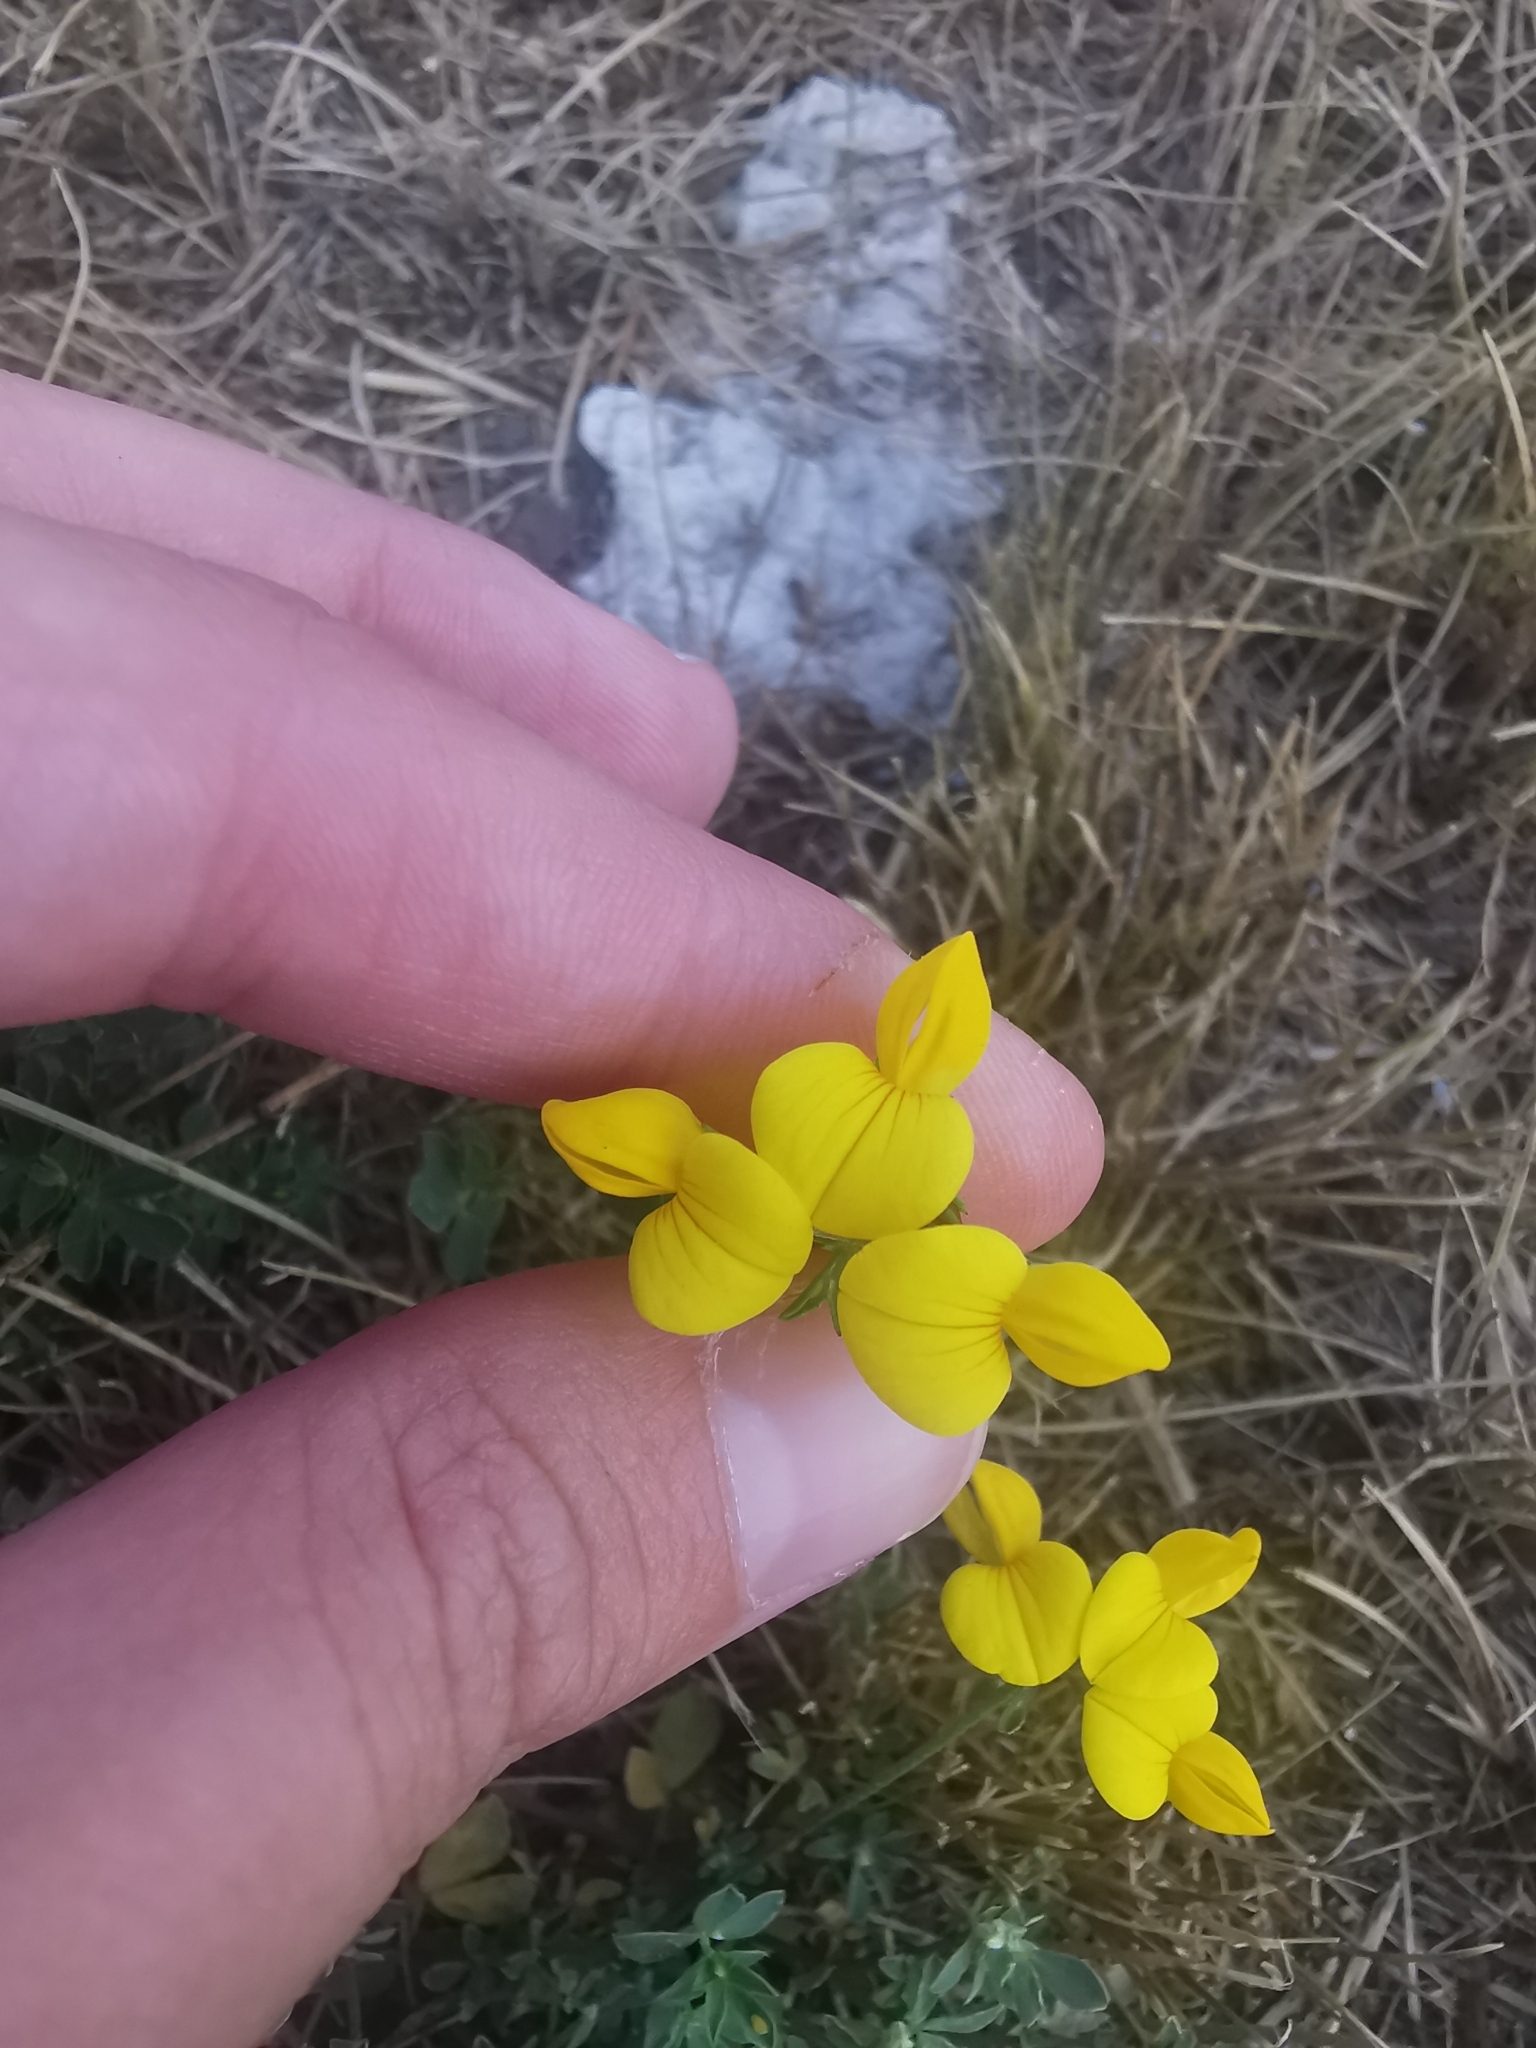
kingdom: Plantae
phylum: Tracheophyta
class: Magnoliopsida
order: Fabales
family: Fabaceae
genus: Lotus
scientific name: Lotus corniculatus
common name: Common bird's-foot-trefoil
